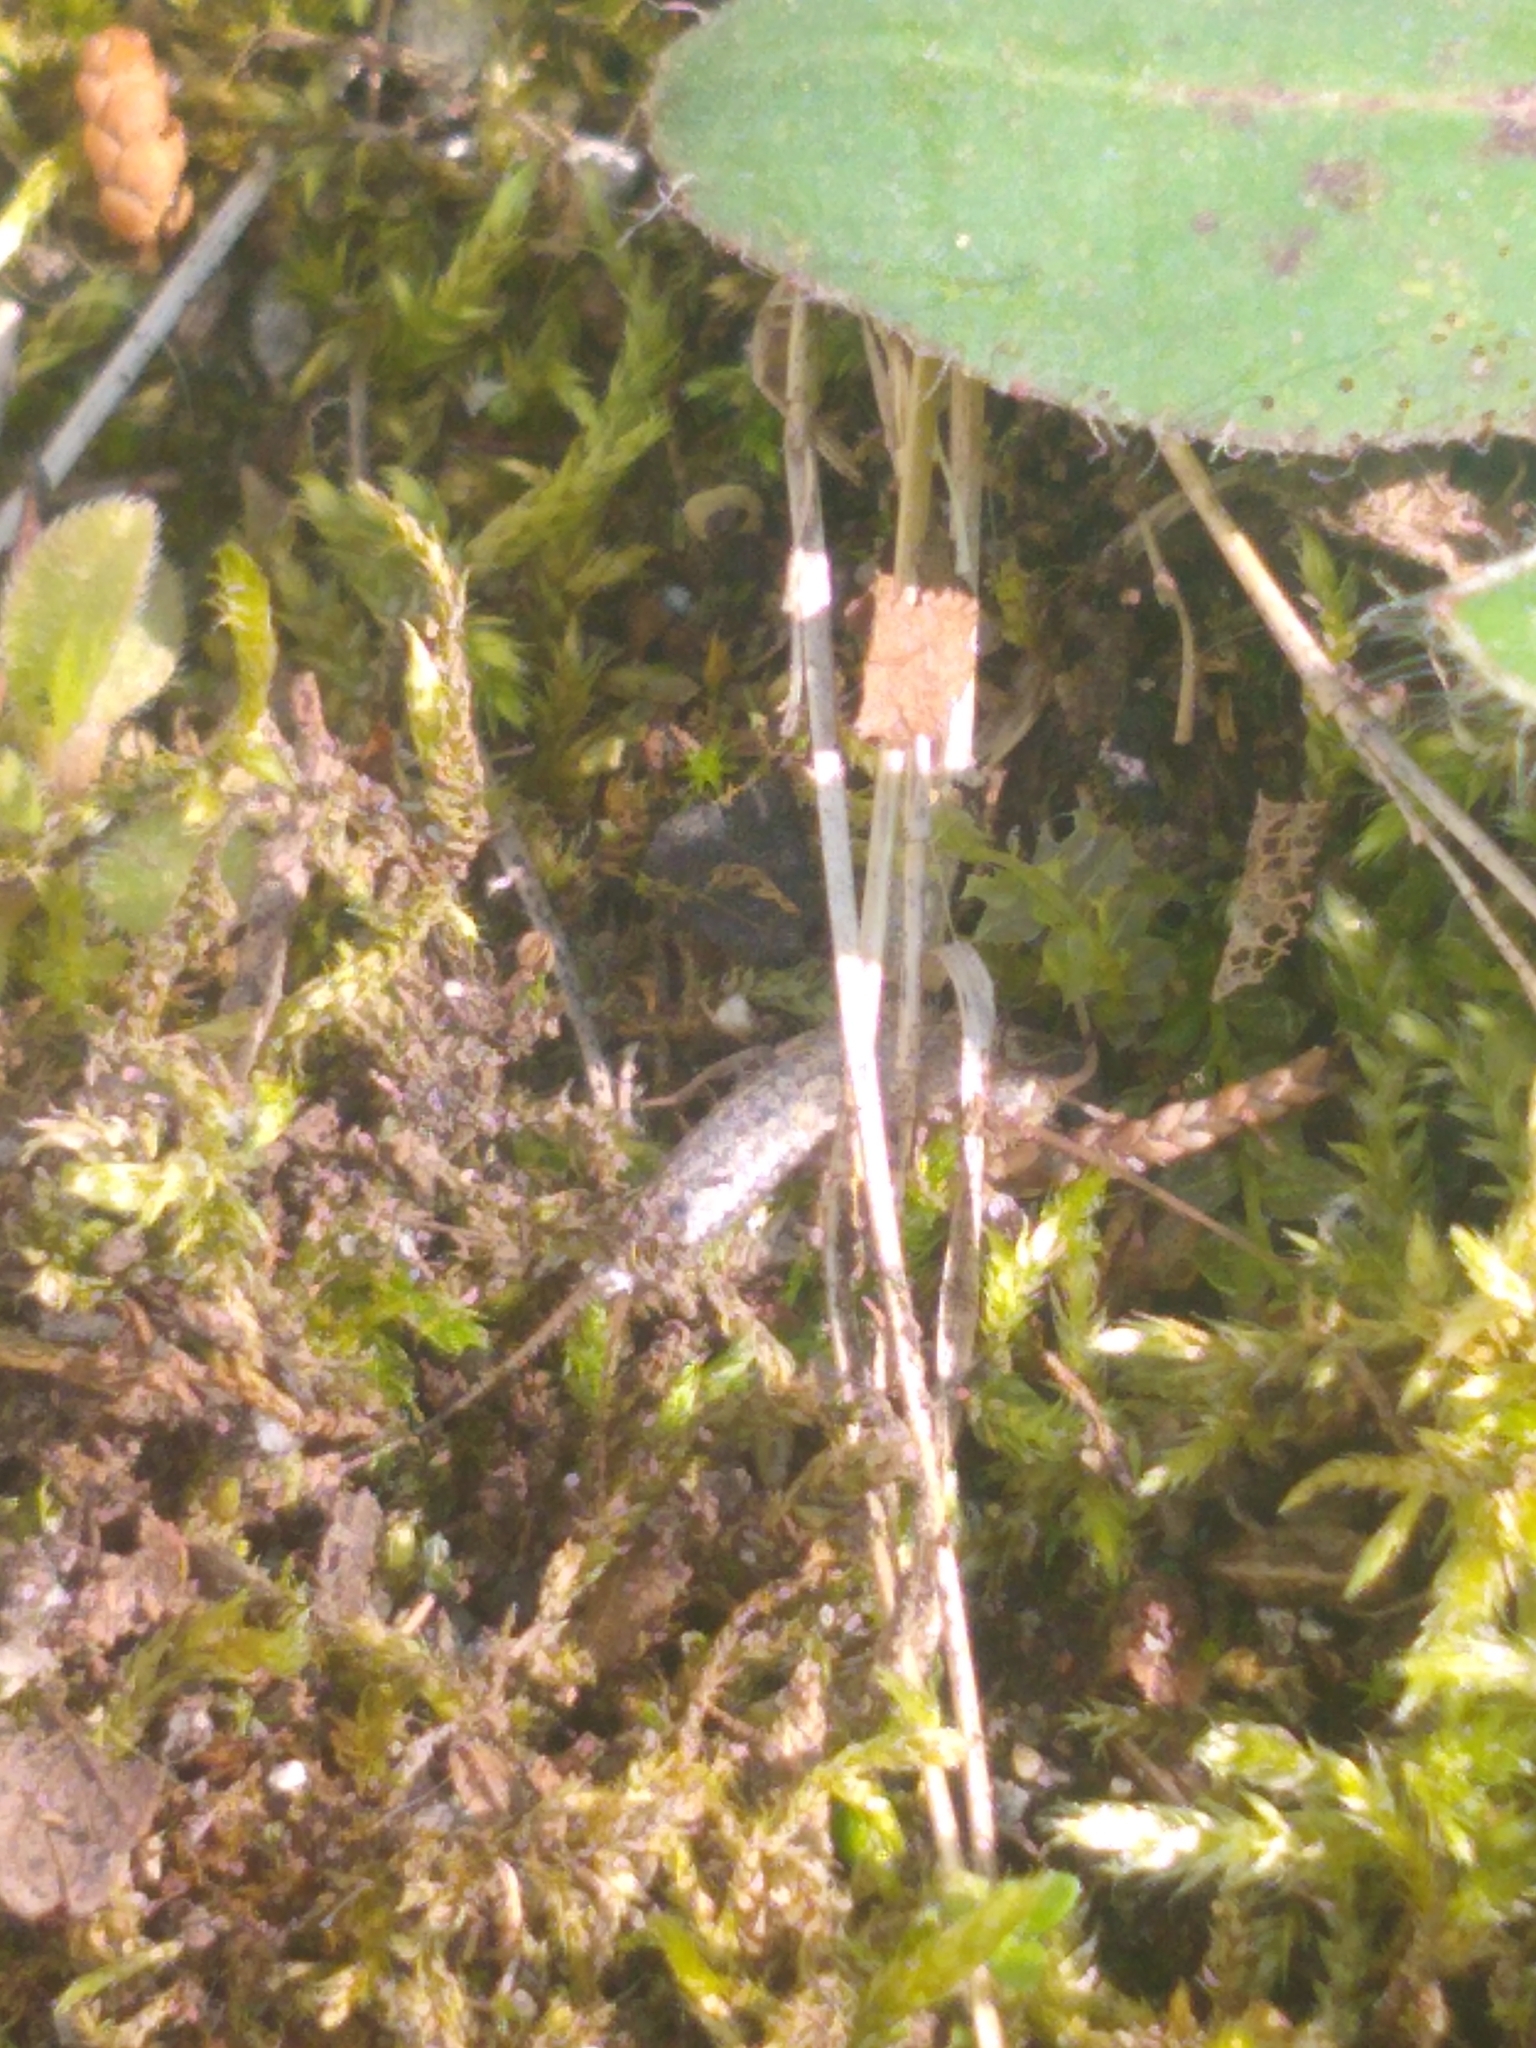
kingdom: Animalia
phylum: Arthropoda
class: Insecta
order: Zygentoma
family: Lepismatidae
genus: Ctenolepisma
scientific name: Ctenolepisma lineata
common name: Four-lined silverfish
